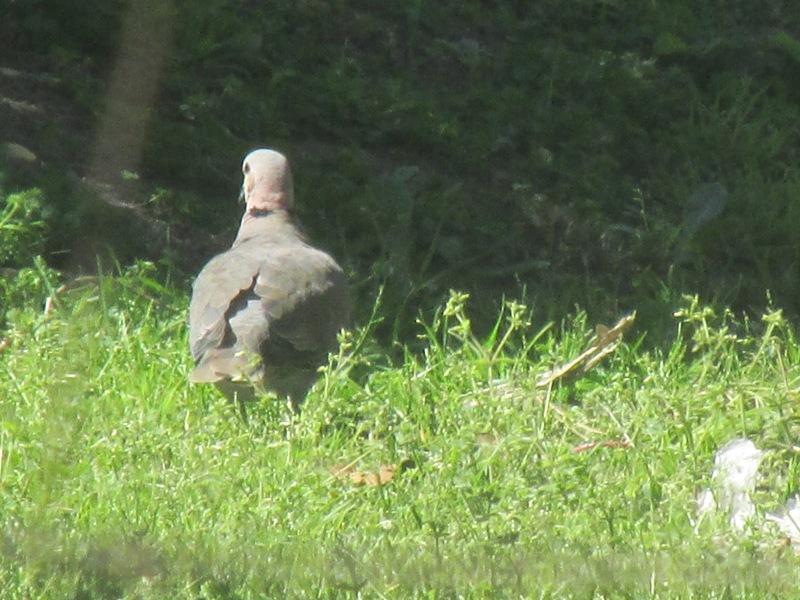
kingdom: Animalia
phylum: Chordata
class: Aves
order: Columbiformes
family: Columbidae
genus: Streptopelia
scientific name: Streptopelia semitorquata
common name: Red-eyed dove
